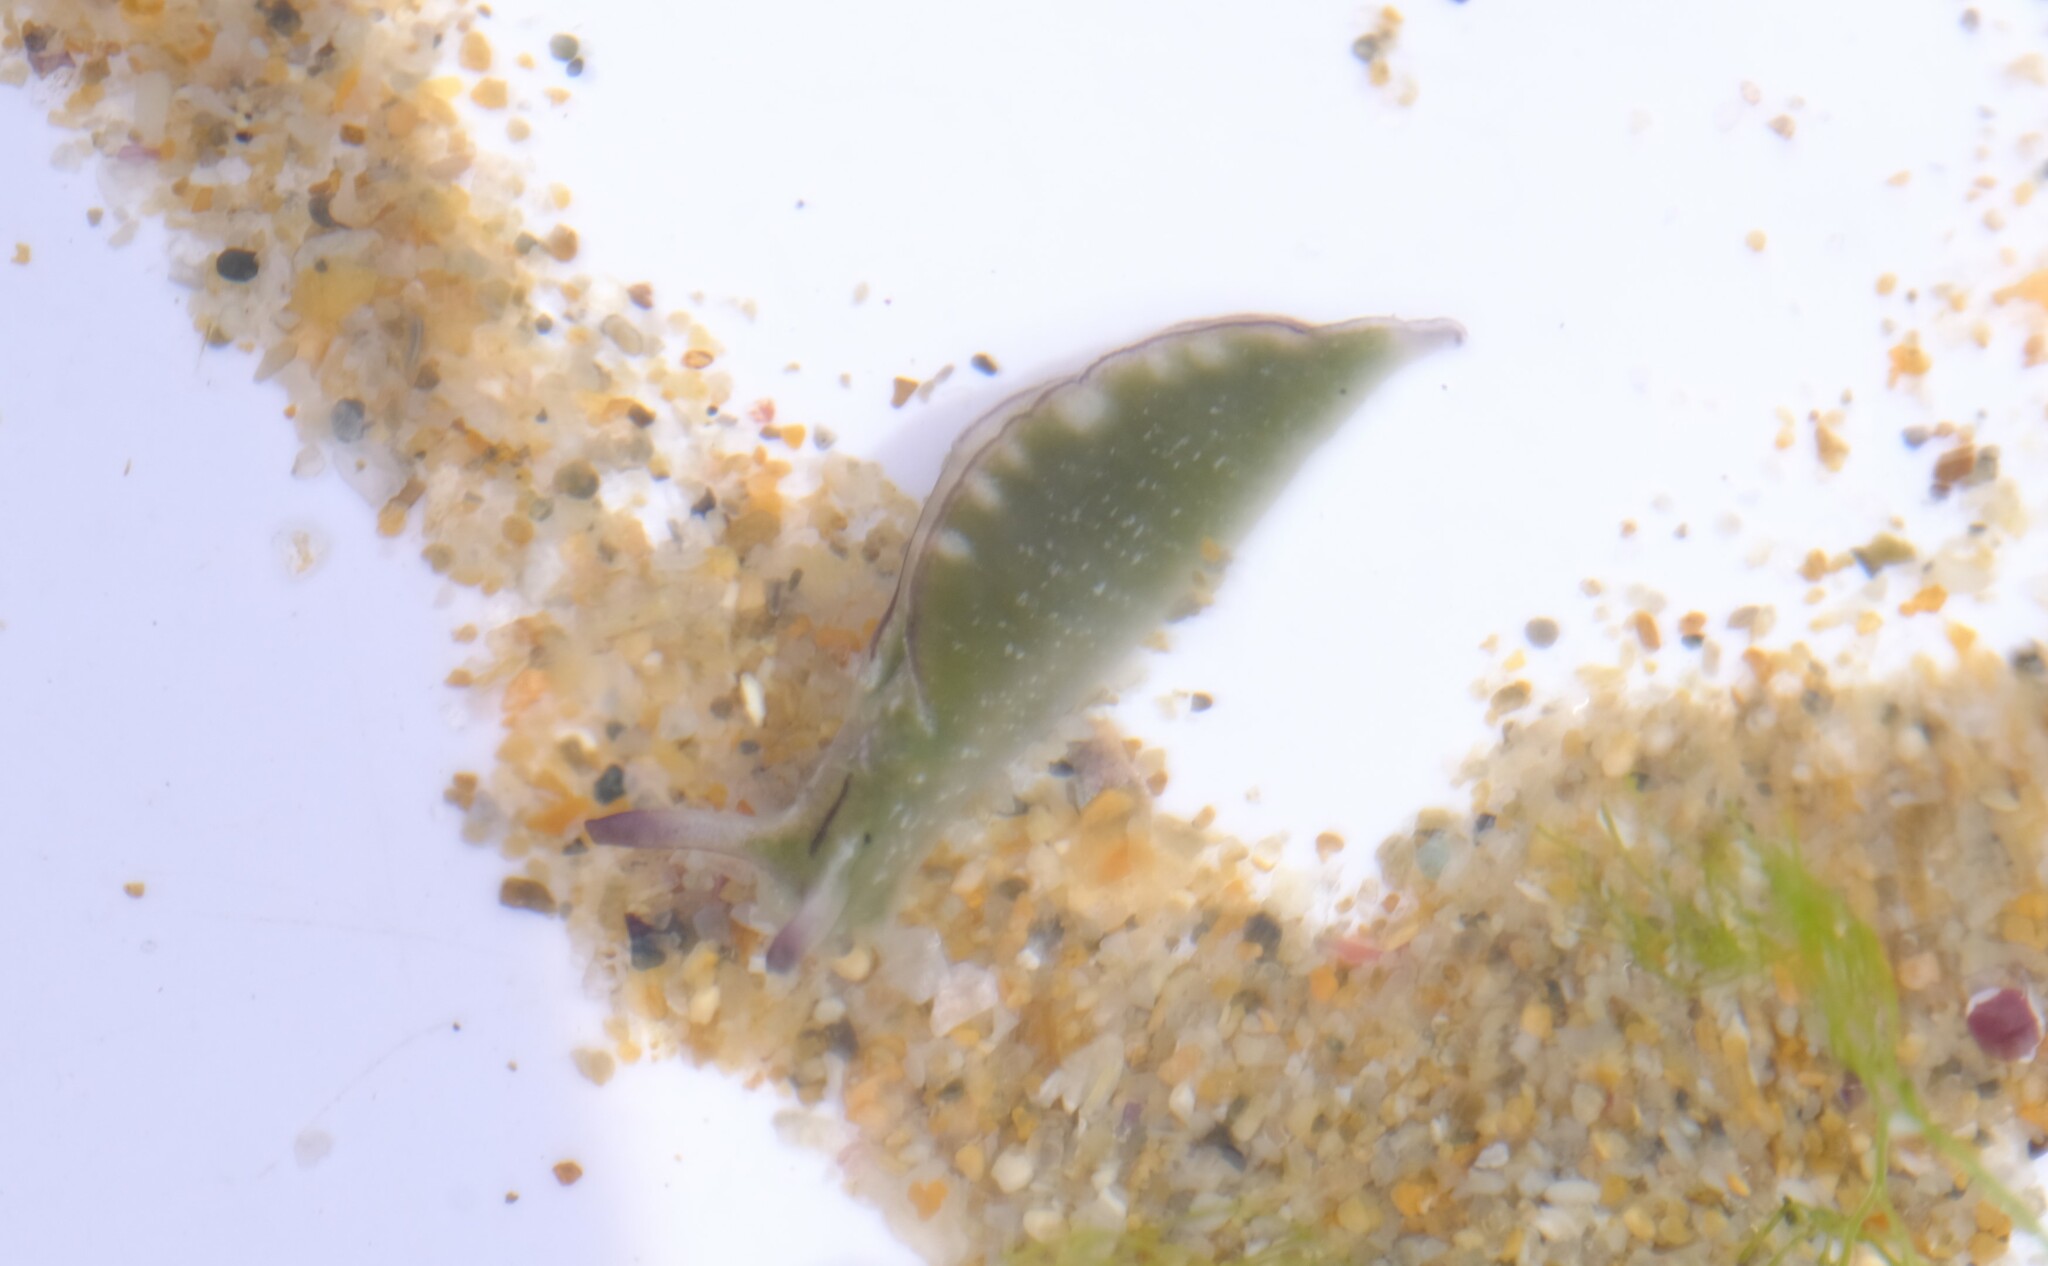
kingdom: Animalia
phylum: Mollusca
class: Gastropoda
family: Plakobranchidae
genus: Elysia
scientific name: Elysia coodgeensis
